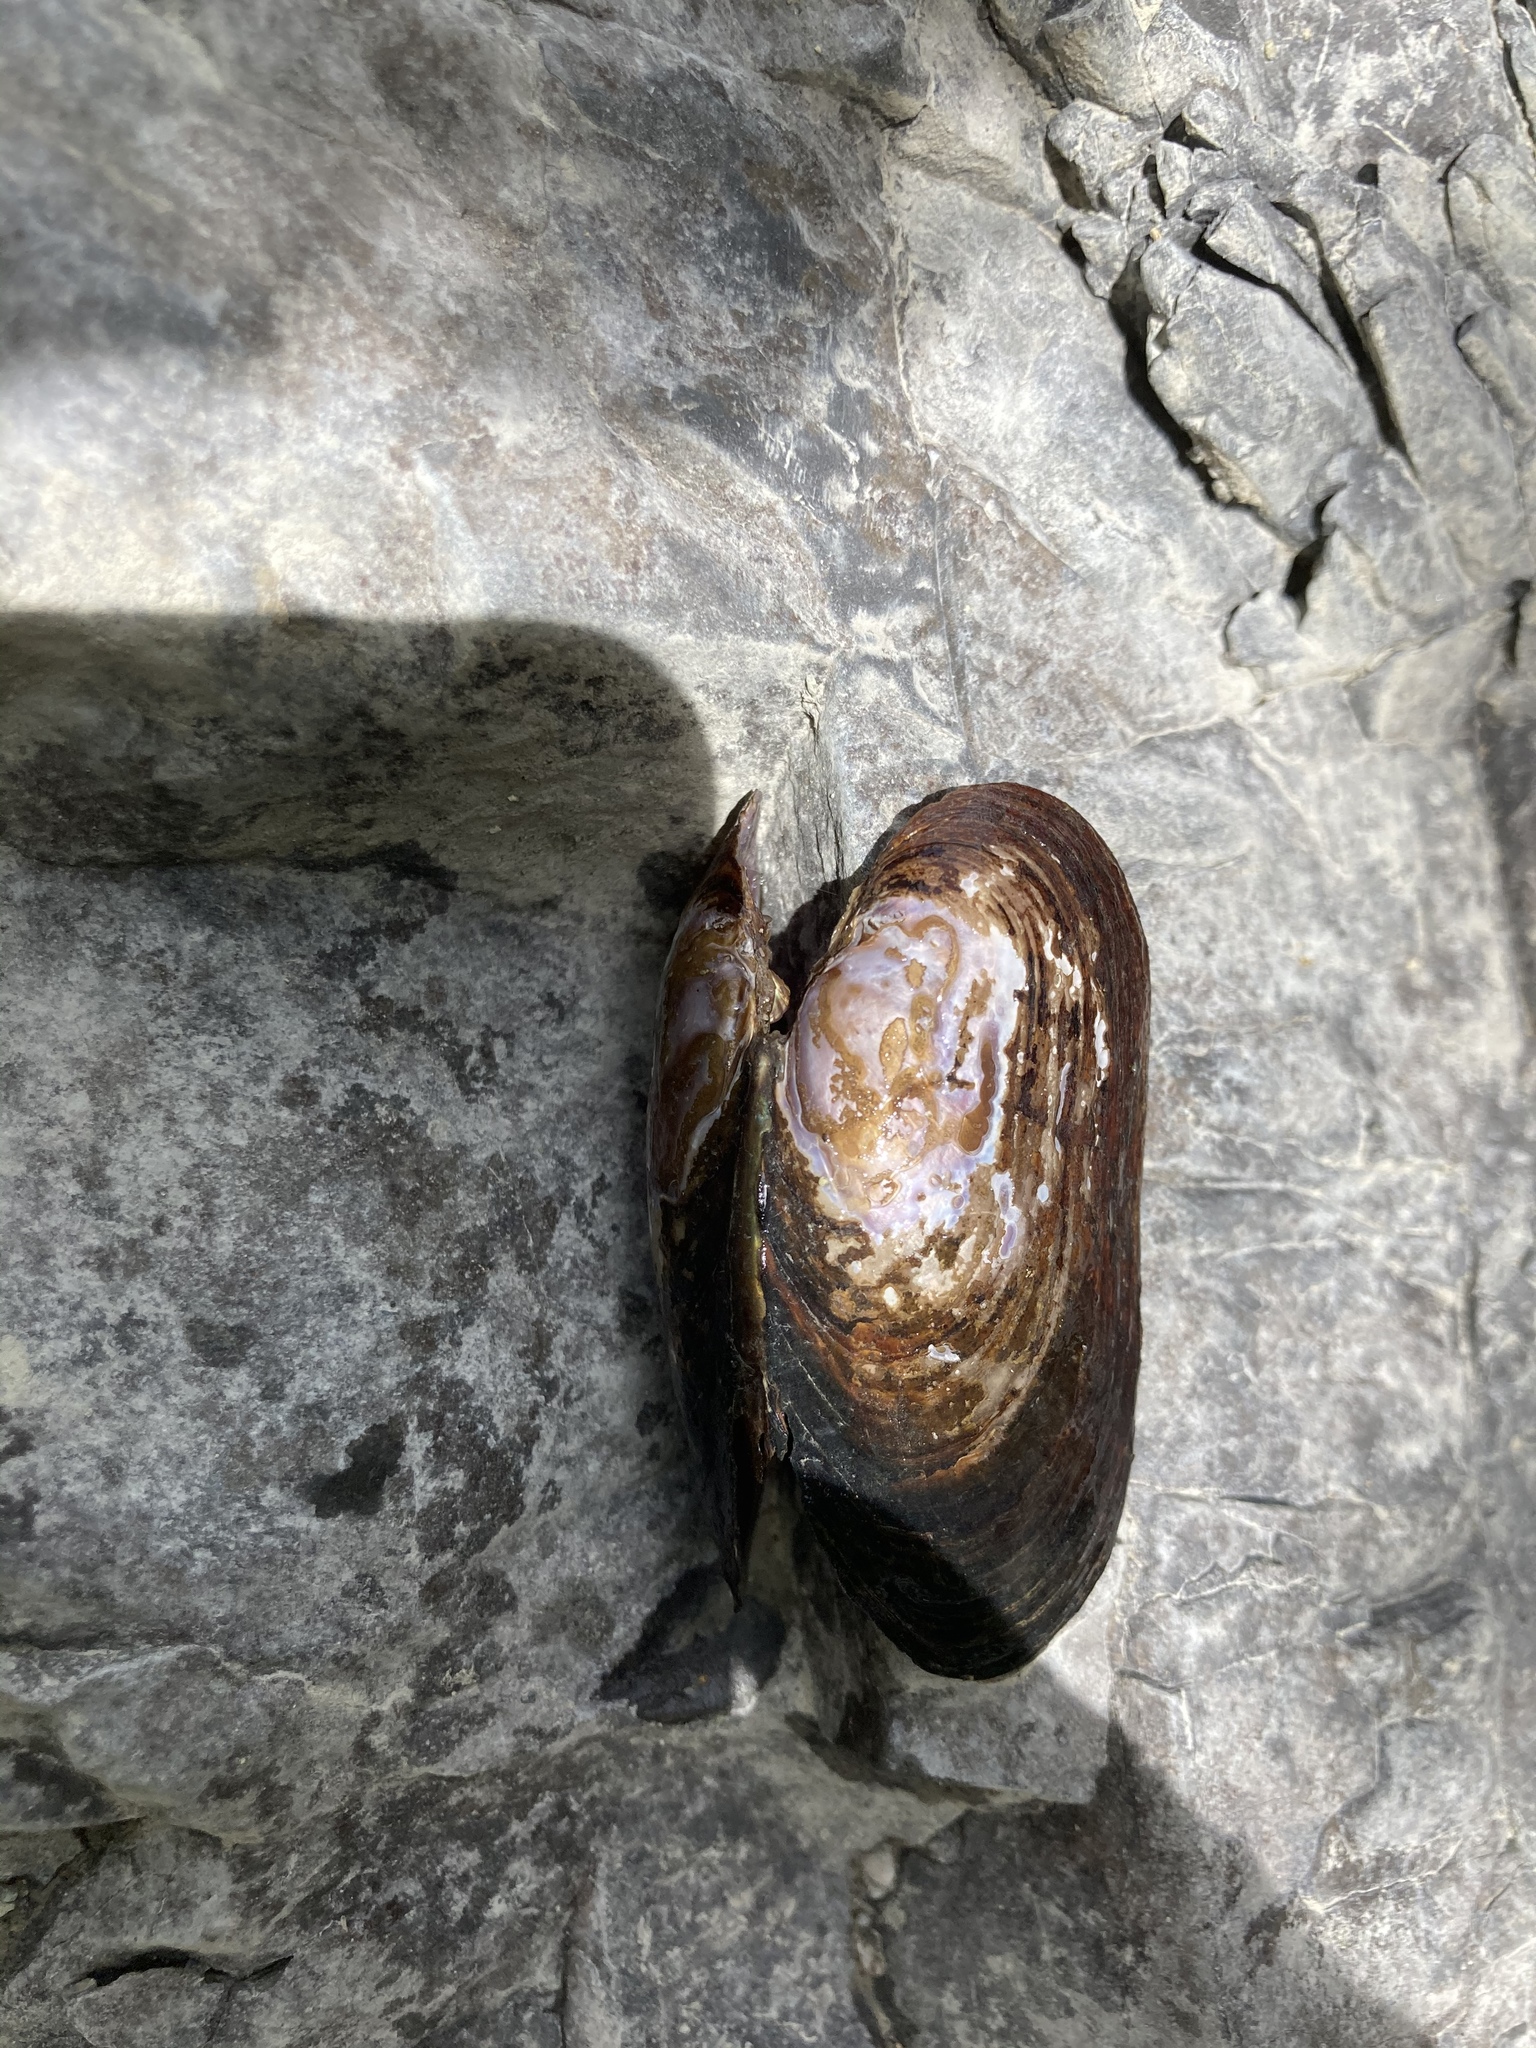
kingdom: Animalia
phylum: Mollusca
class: Bivalvia
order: Unionida
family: Margaritiferidae
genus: Margaritifera
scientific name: Margaritifera falcata
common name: Western pearlshell
